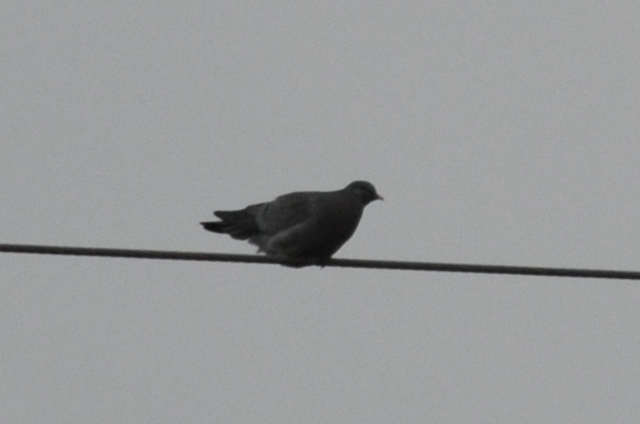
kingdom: Animalia
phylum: Chordata
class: Aves
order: Columbiformes
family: Columbidae
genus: Columba
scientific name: Columba oenas
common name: Stock dove
